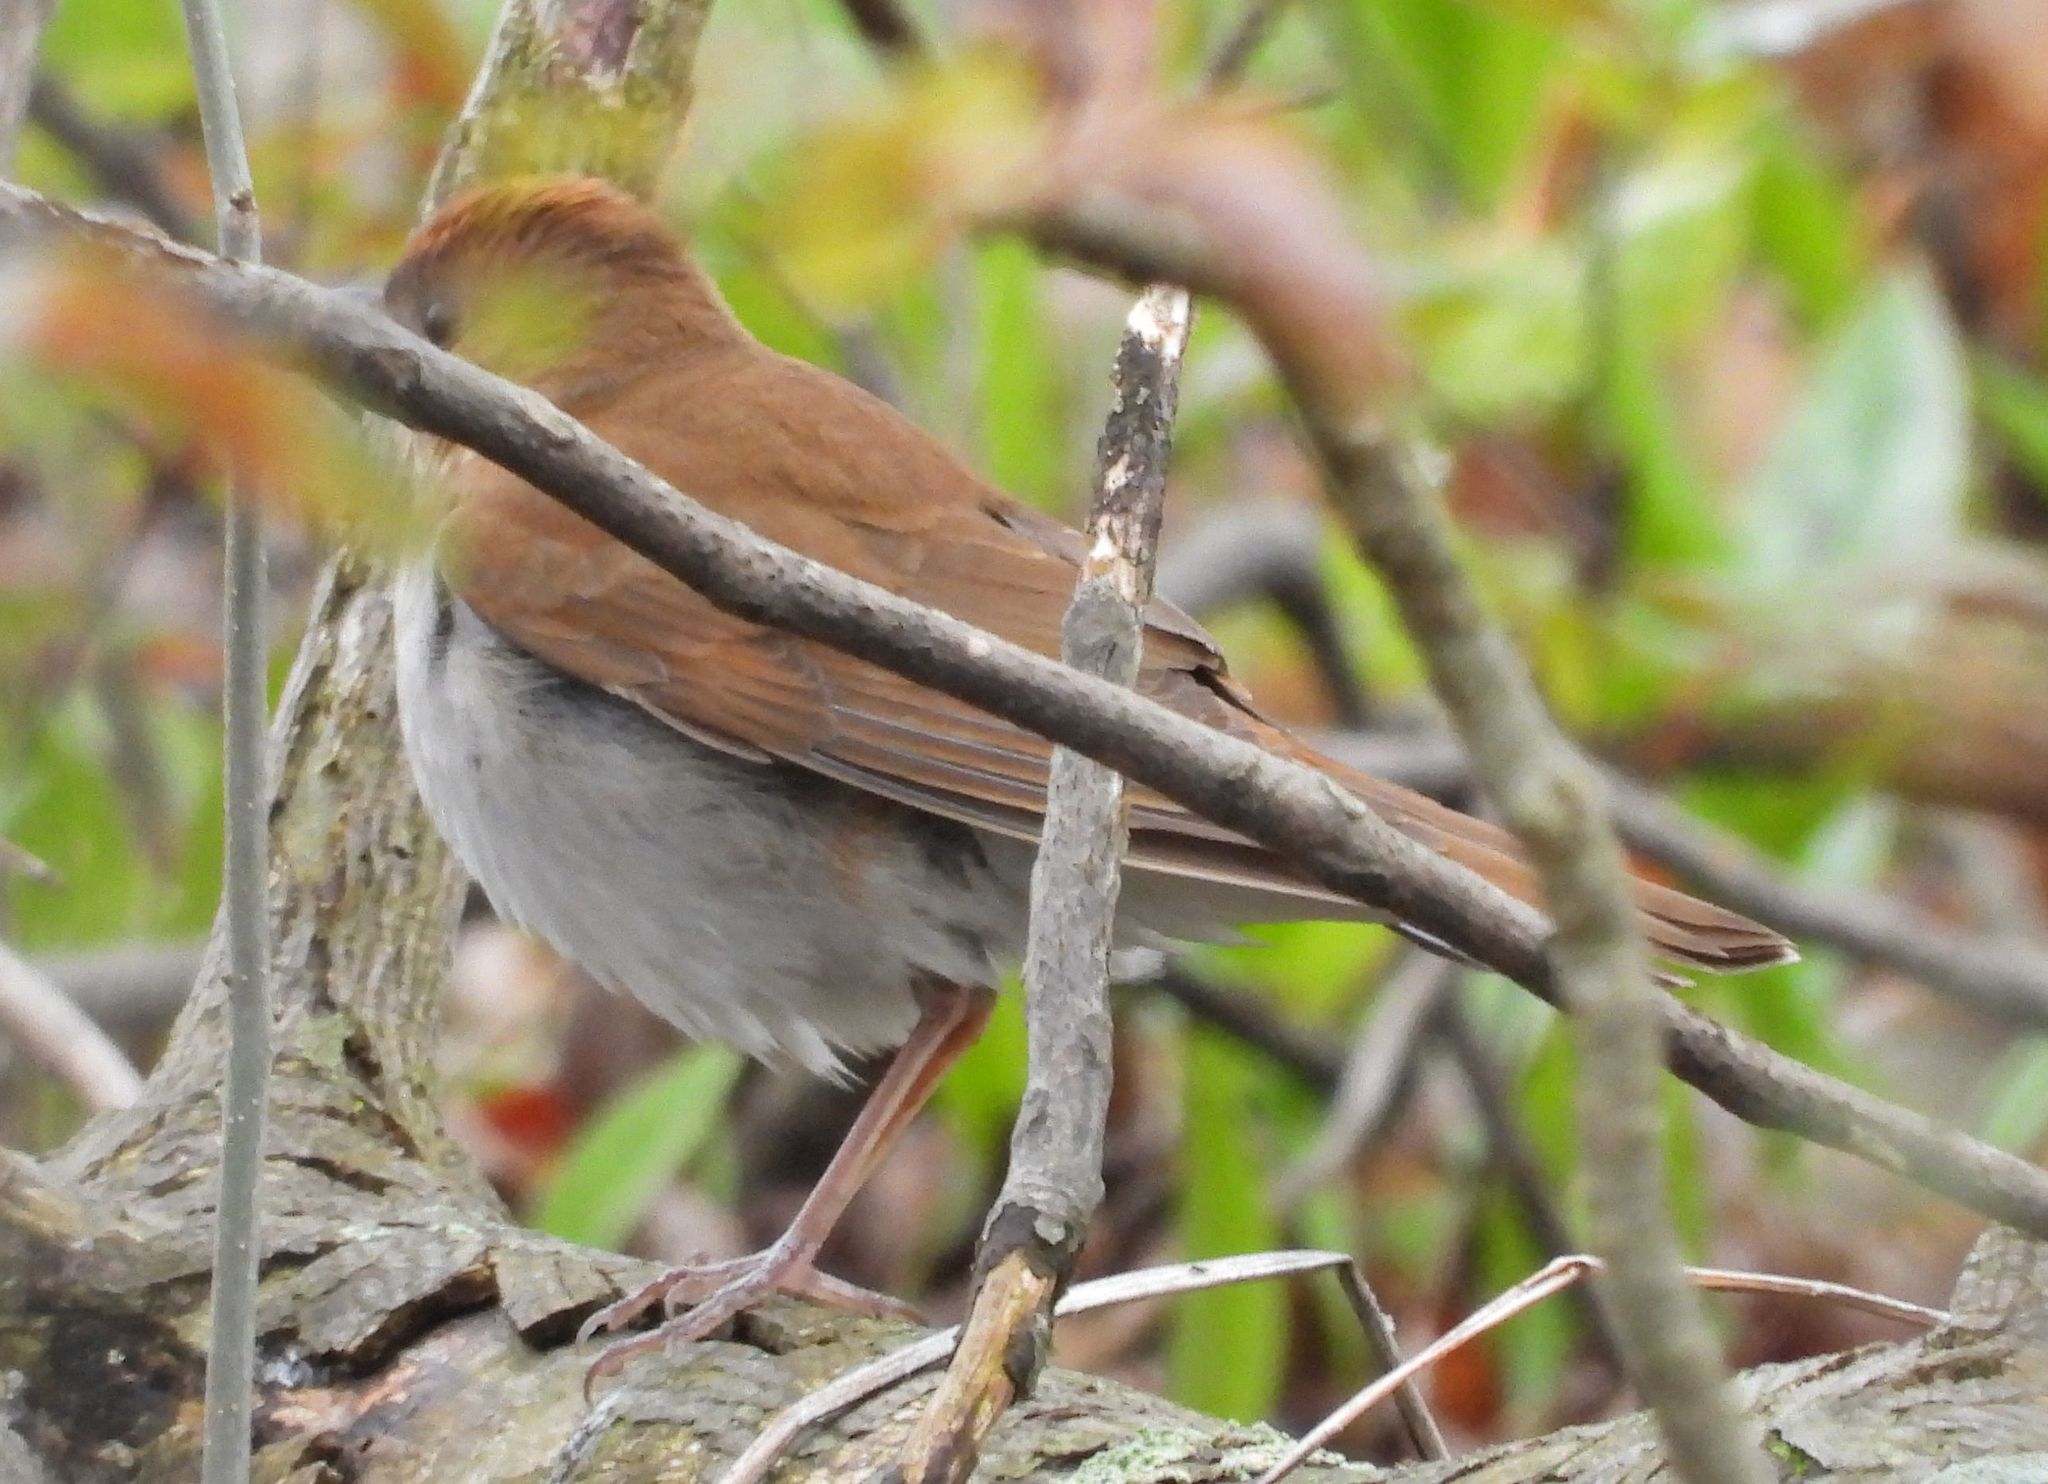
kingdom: Animalia
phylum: Chordata
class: Aves
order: Passeriformes
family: Turdidae
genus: Catharus
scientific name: Catharus fuscescens
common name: Veery
